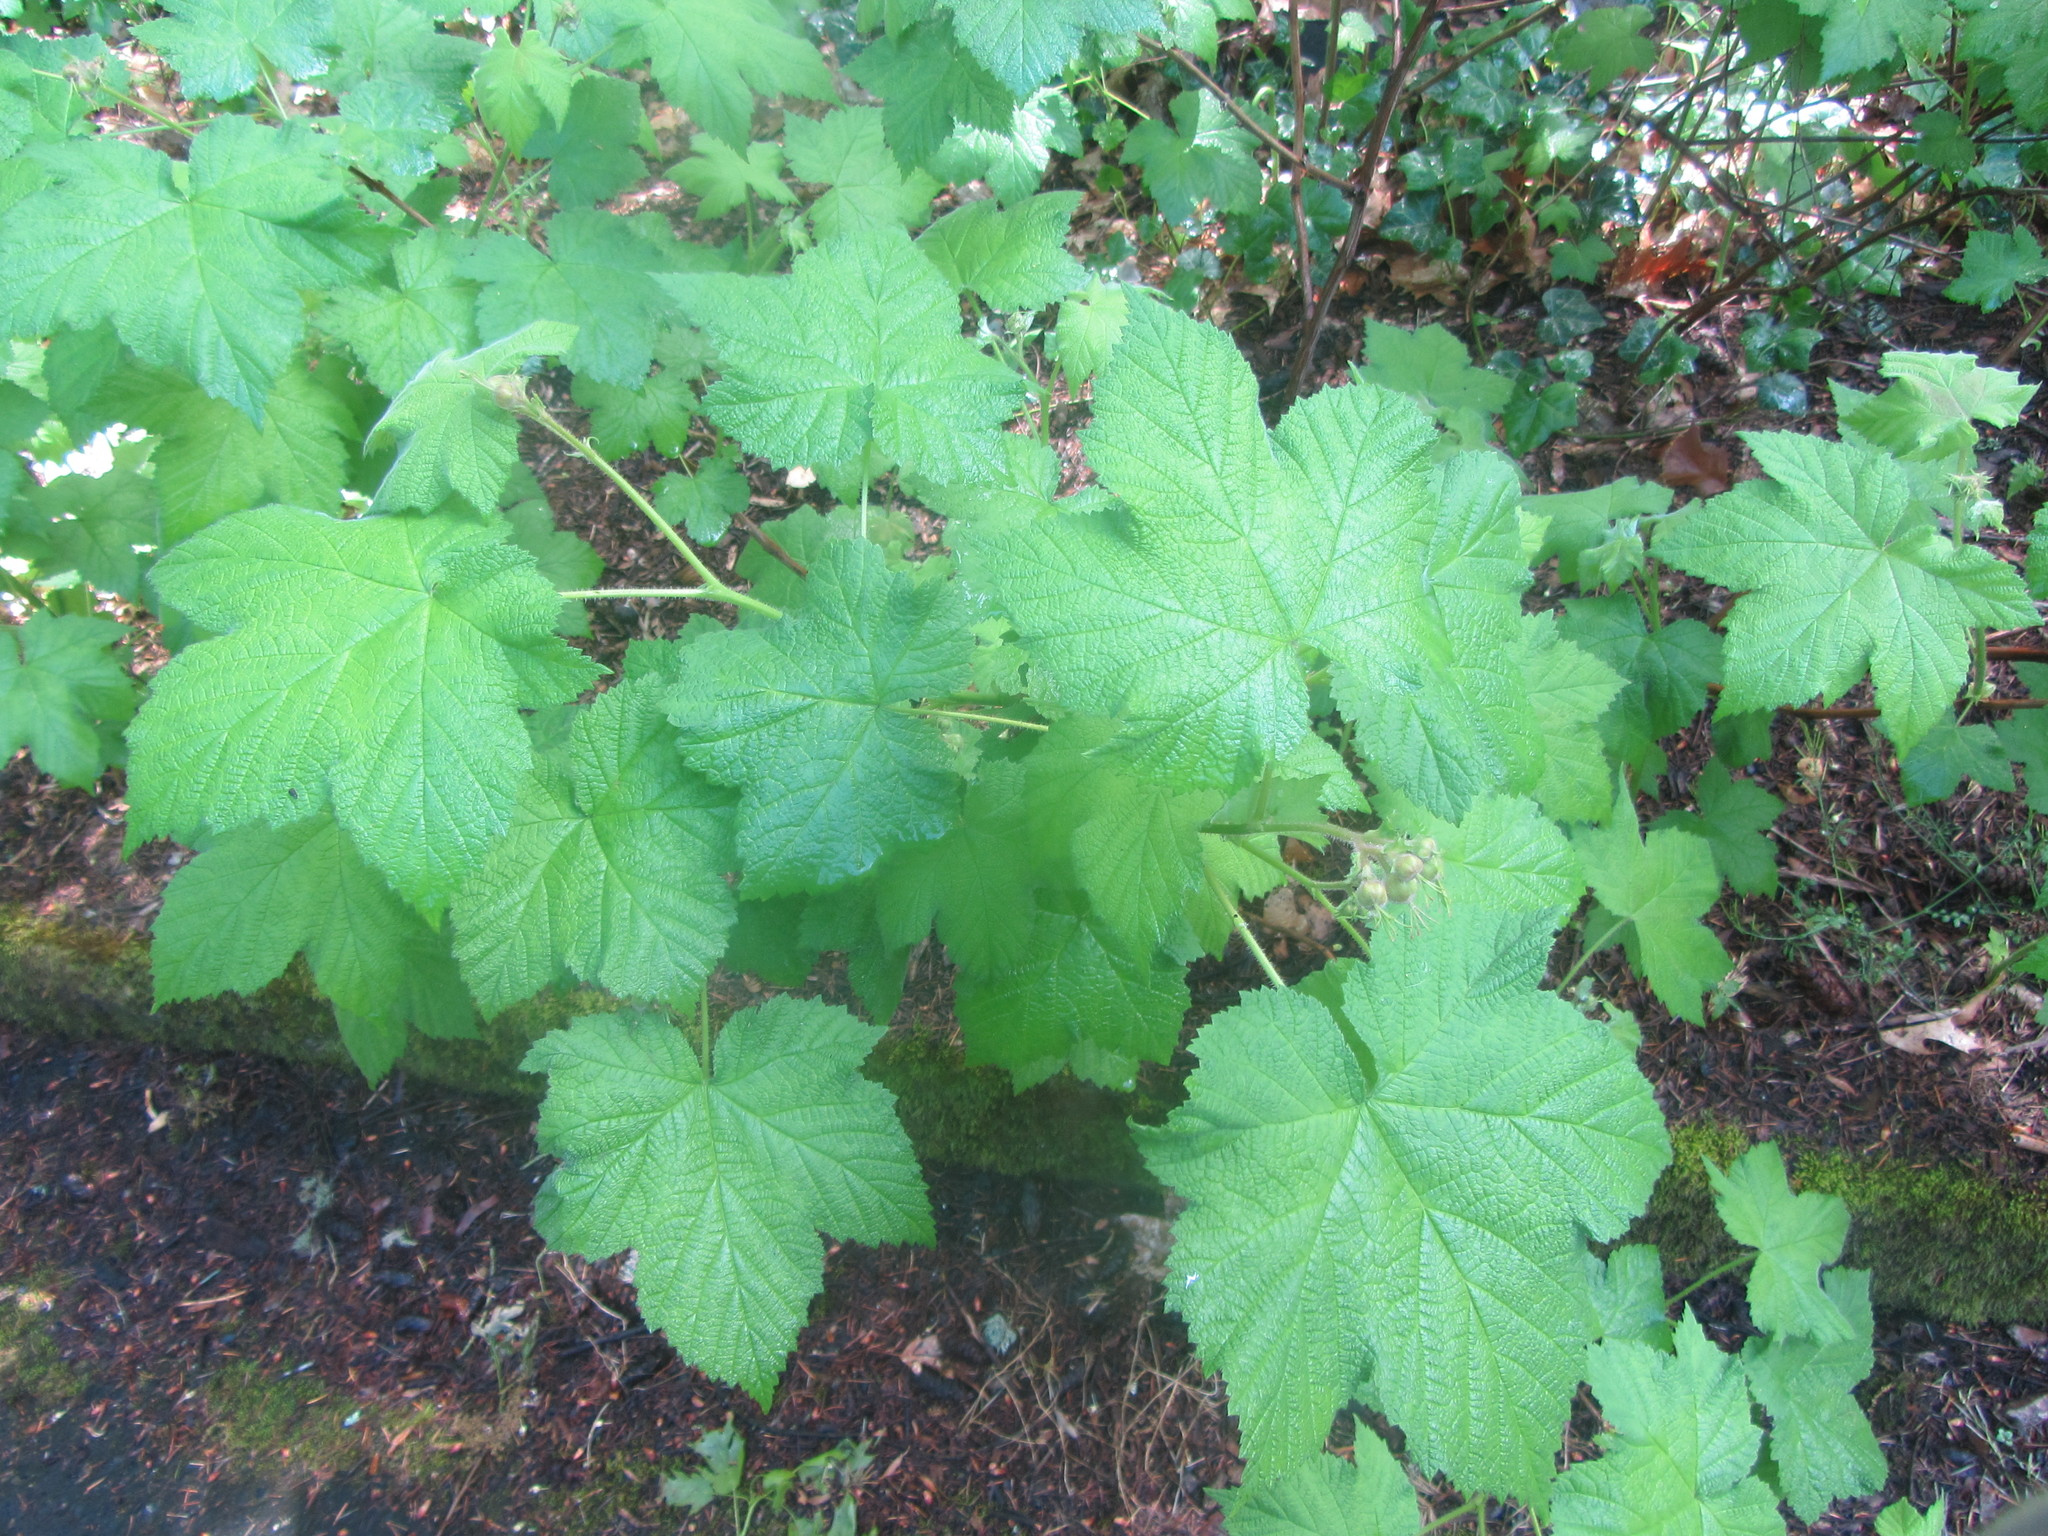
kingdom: Plantae
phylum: Tracheophyta
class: Magnoliopsida
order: Rosales
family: Rosaceae
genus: Rubus
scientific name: Rubus parviflorus
